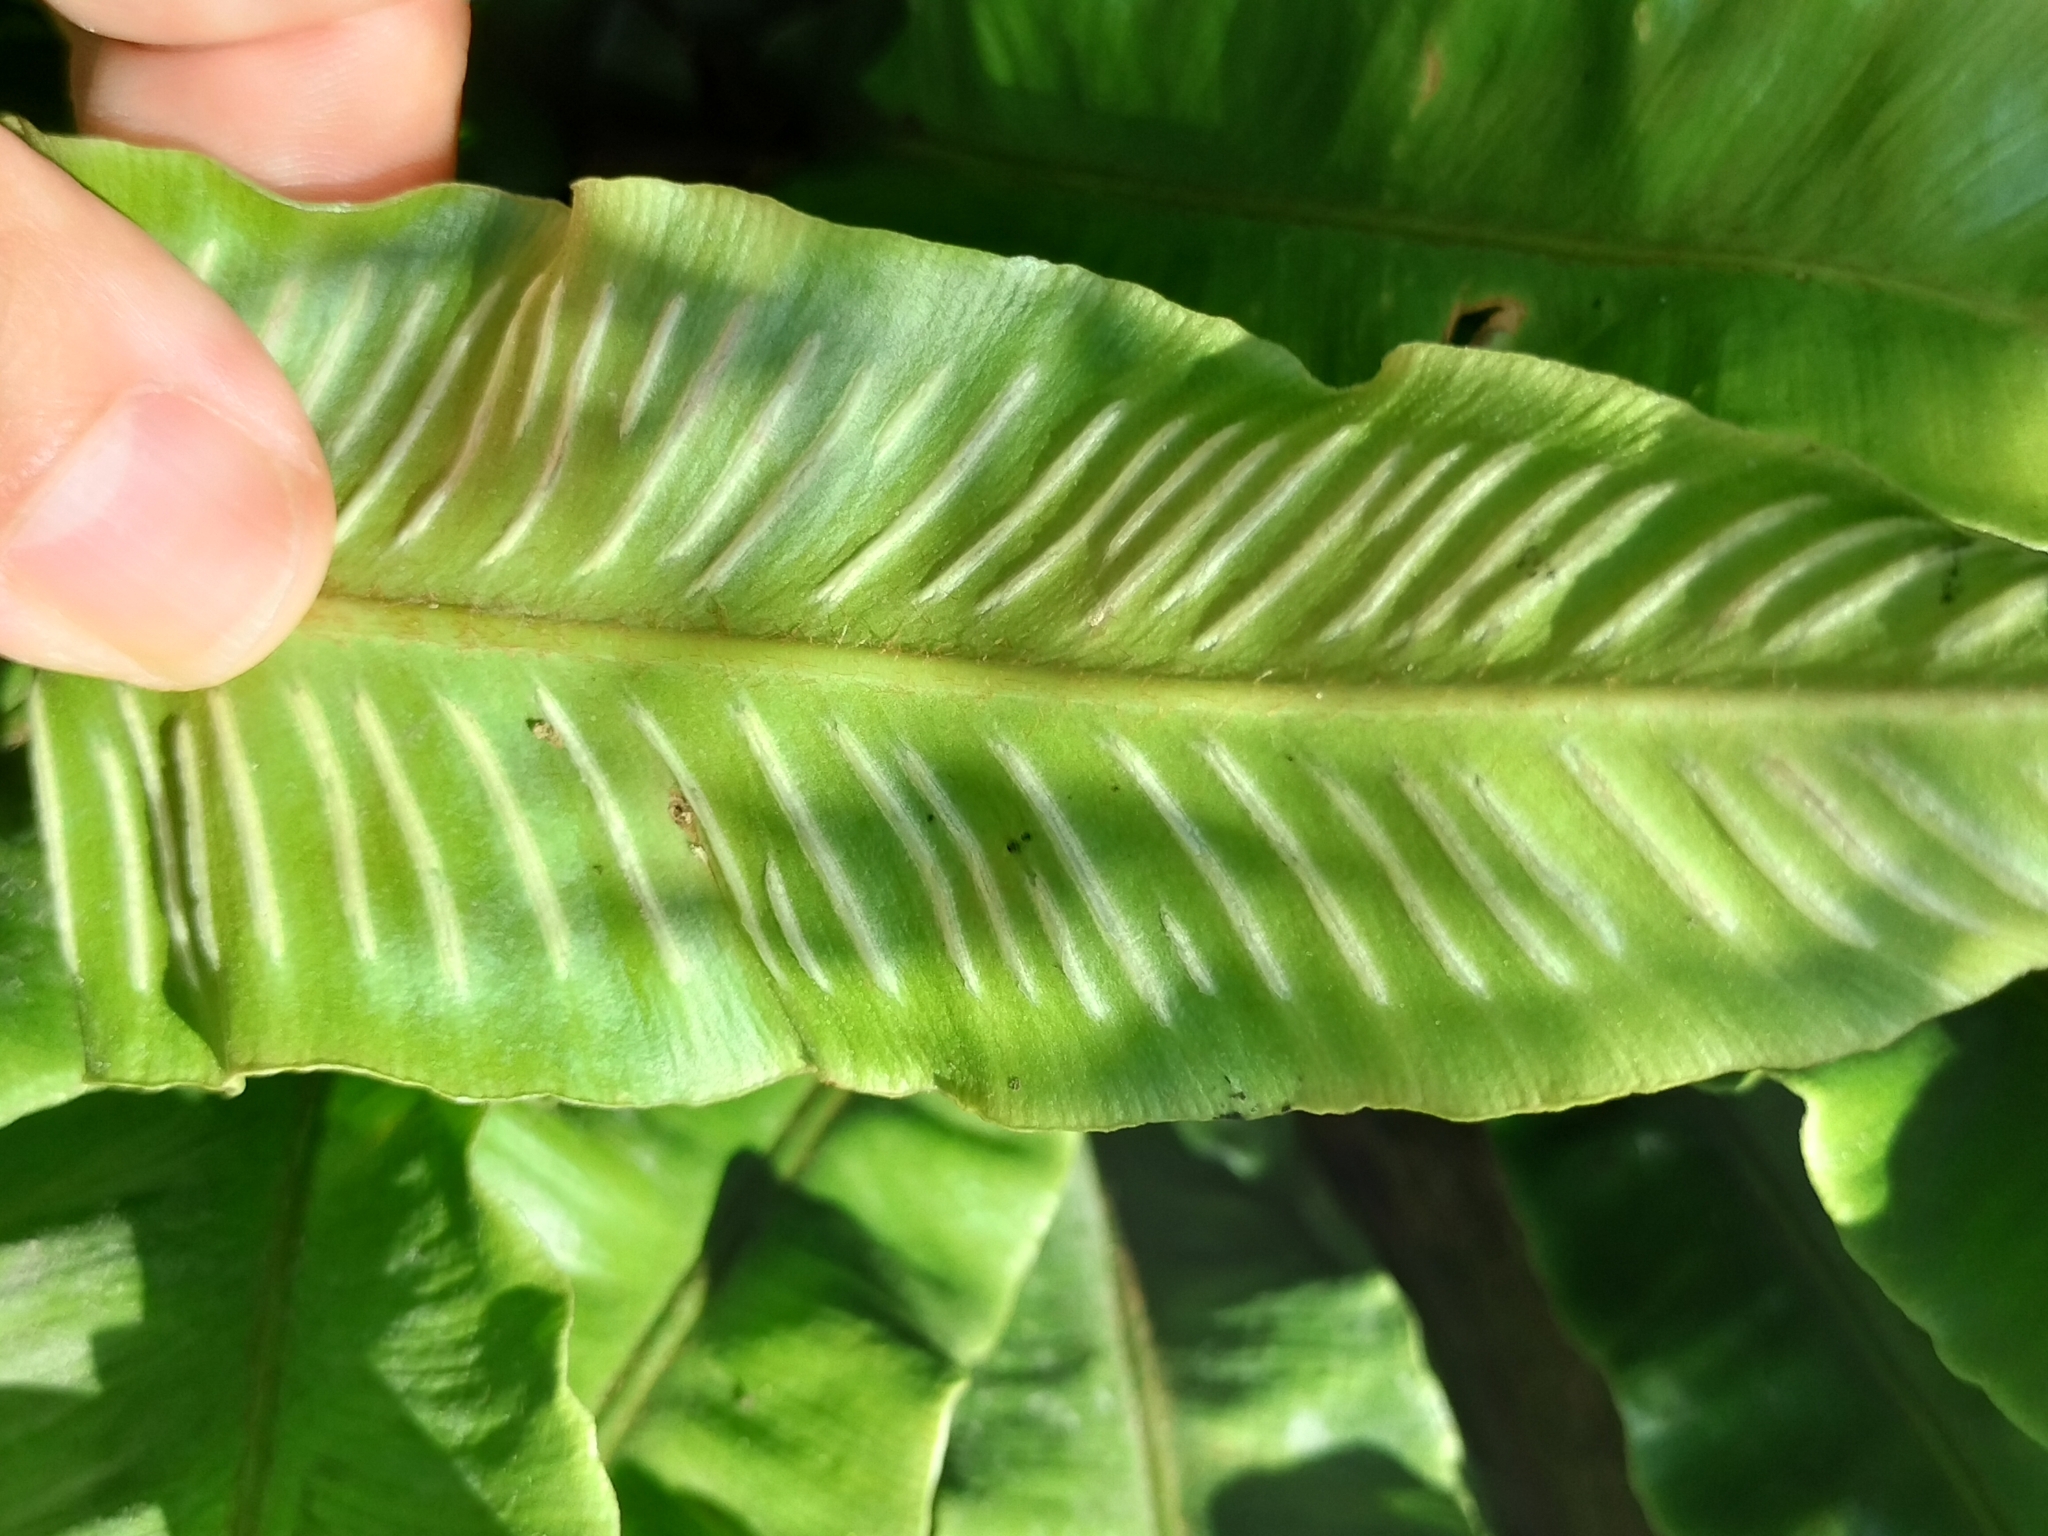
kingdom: Plantae
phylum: Tracheophyta
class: Polypodiopsida
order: Polypodiales
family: Aspleniaceae
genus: Asplenium
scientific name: Asplenium scolopendrium
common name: Hart's-tongue fern
